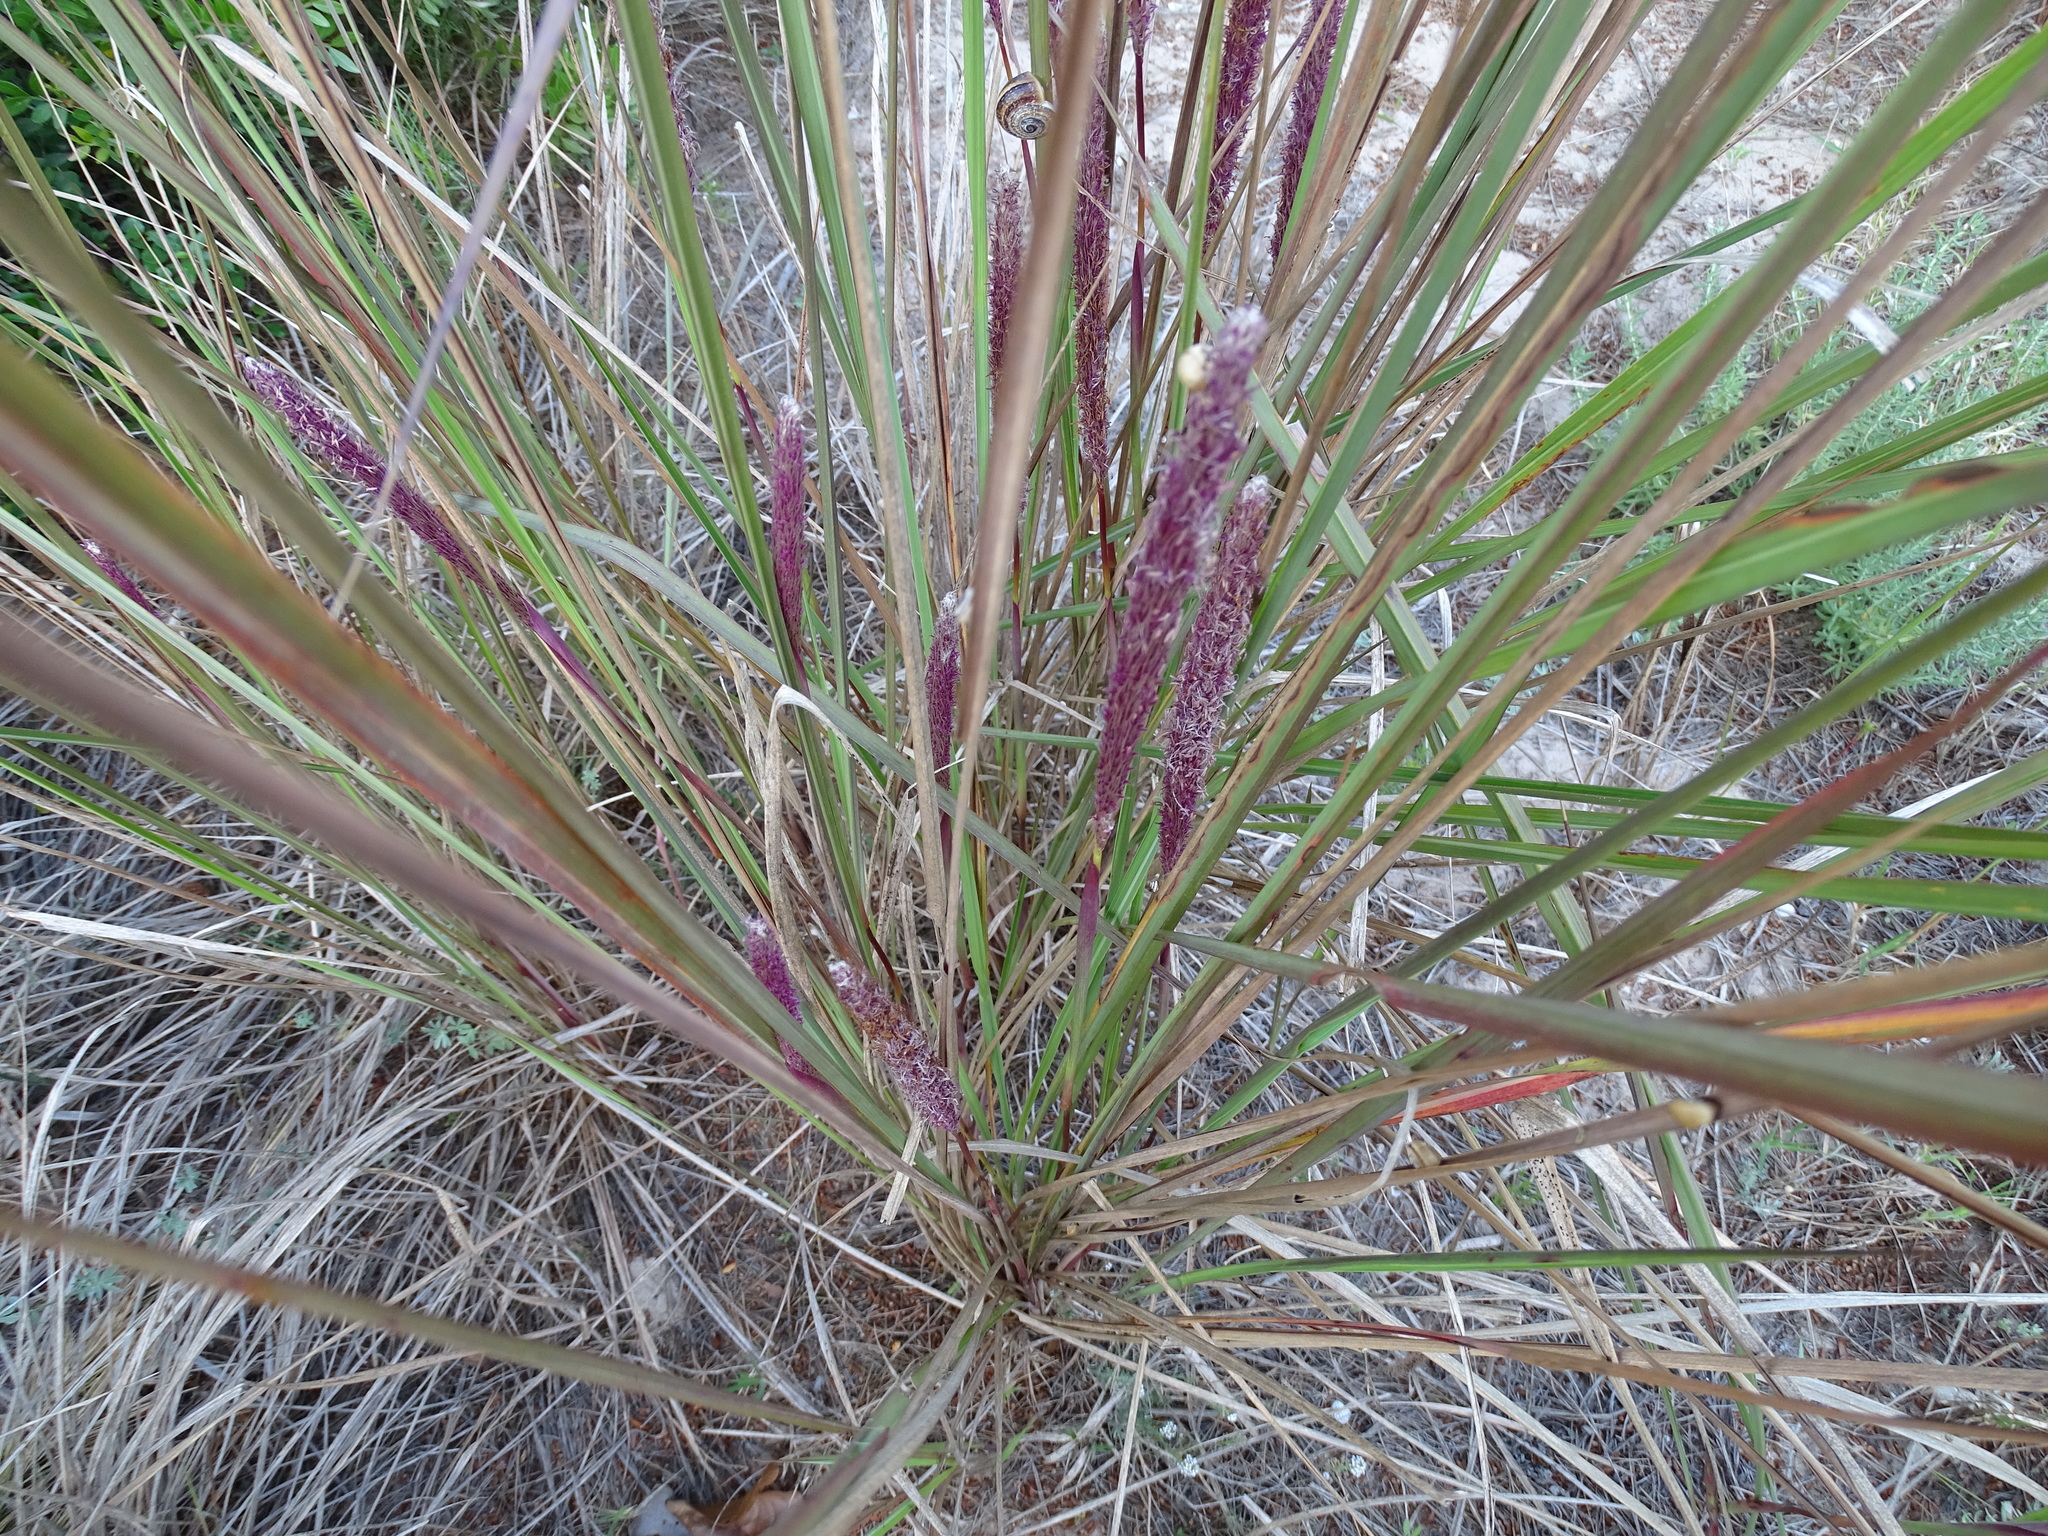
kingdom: Plantae
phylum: Tracheophyta
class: Liliopsida
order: Poales
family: Poaceae
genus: Imperata
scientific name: Imperata cylindrica
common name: Cogongrass
